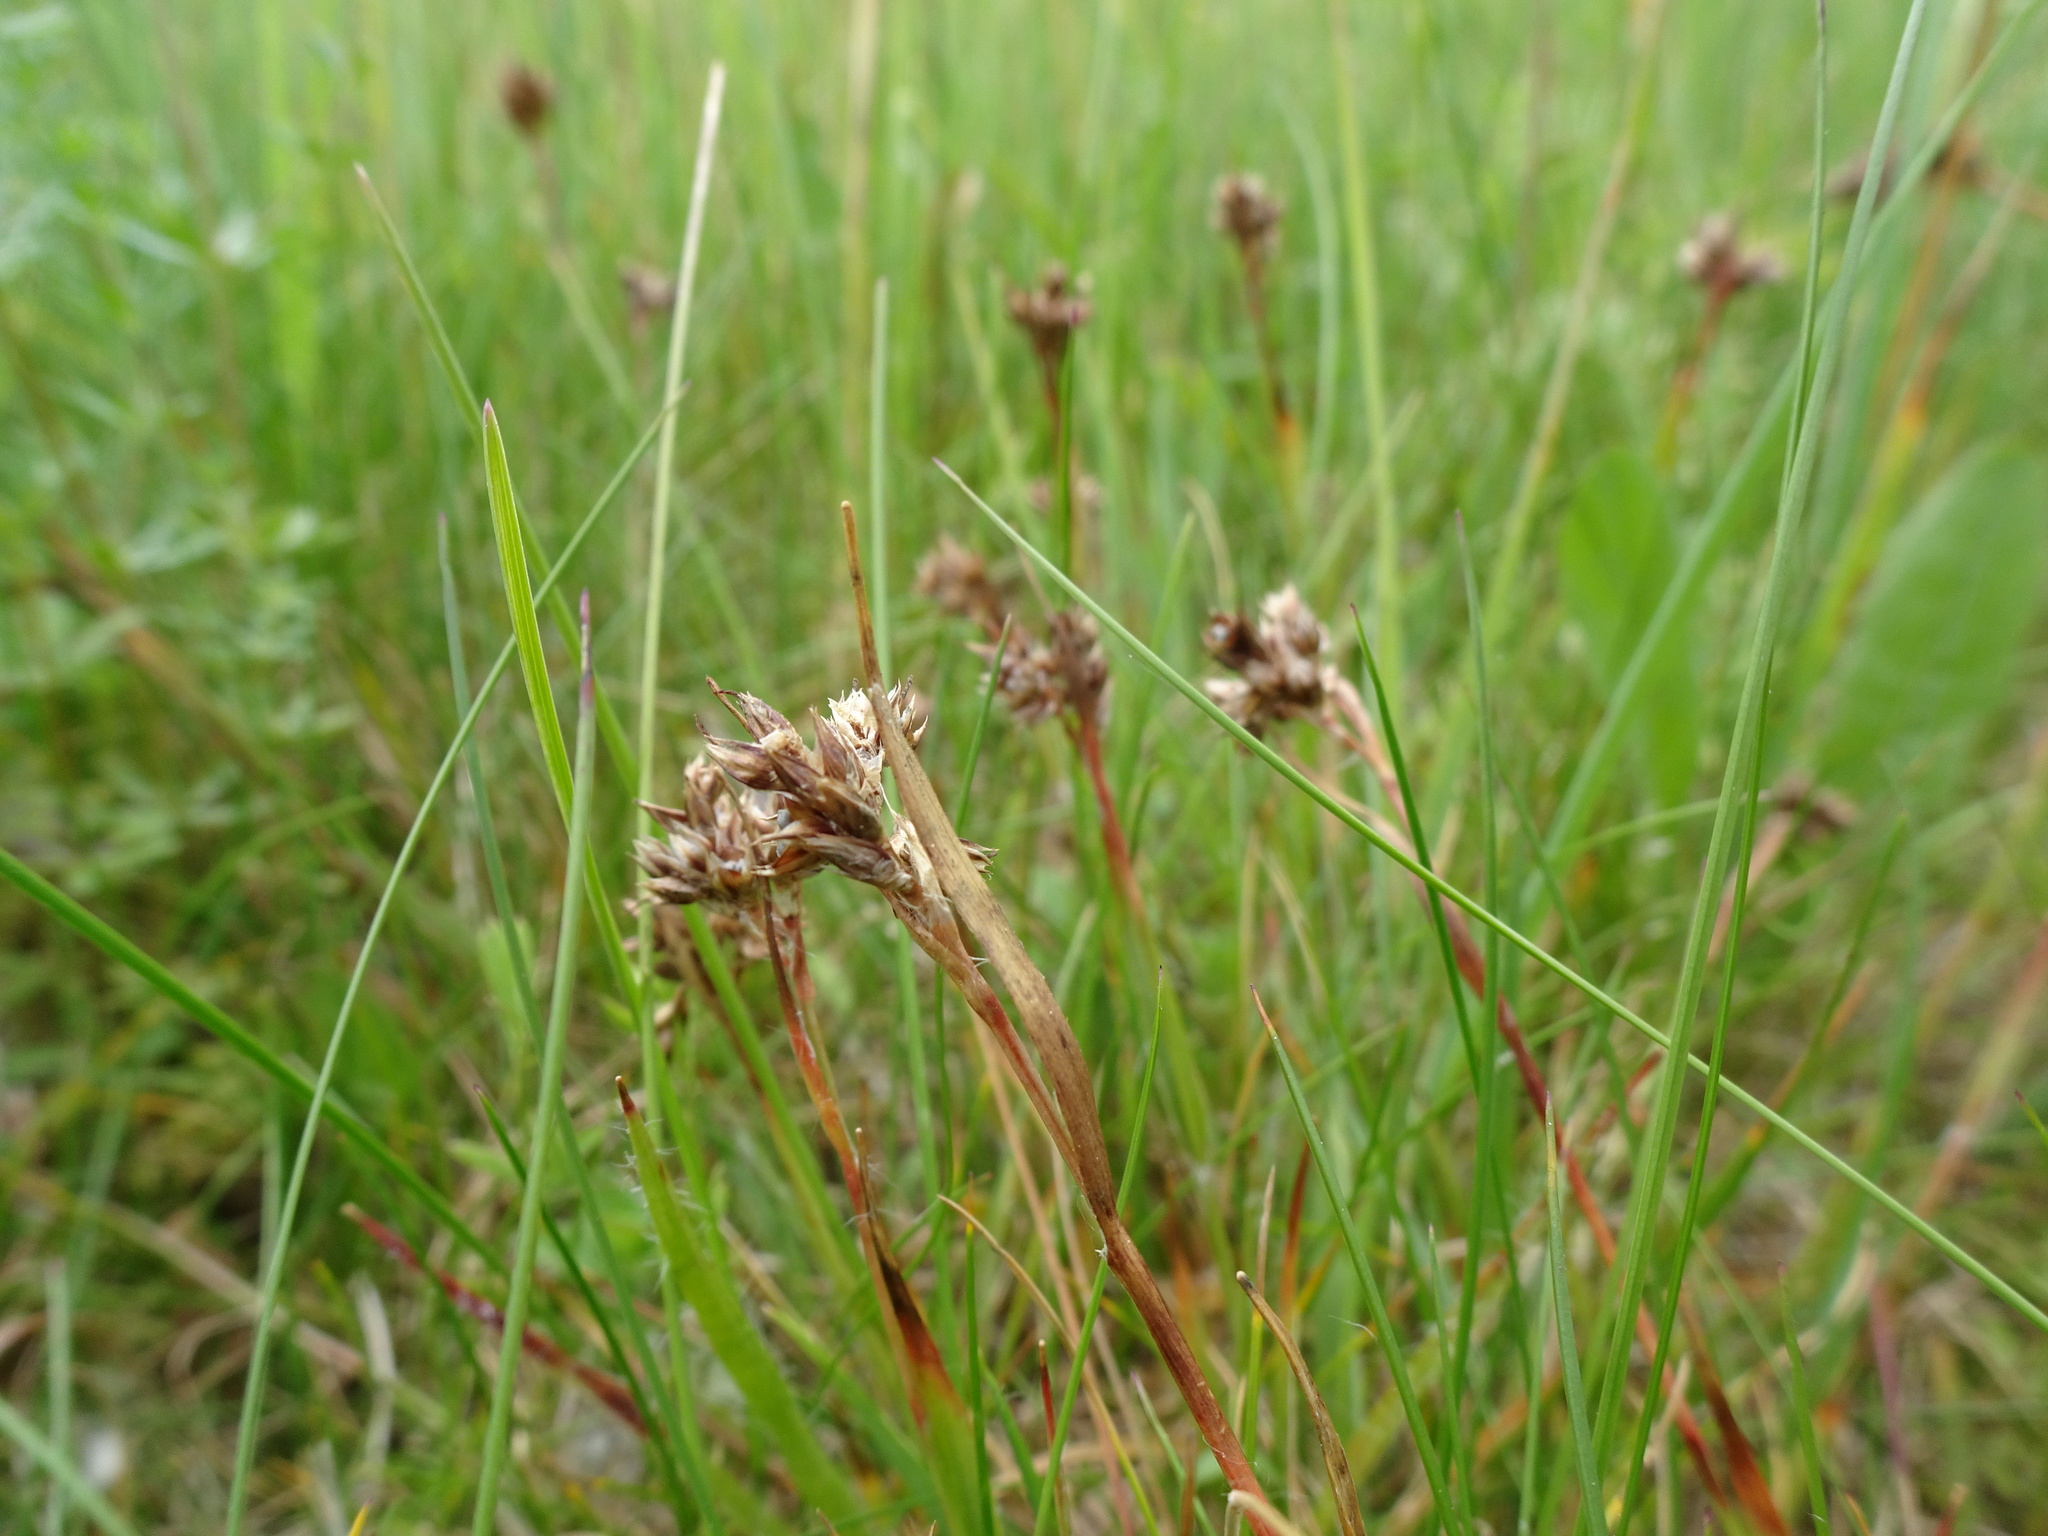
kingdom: Plantae
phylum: Tracheophyta
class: Liliopsida
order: Poales
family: Juncaceae
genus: Luzula
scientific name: Luzula campestris
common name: Field wood-rush
